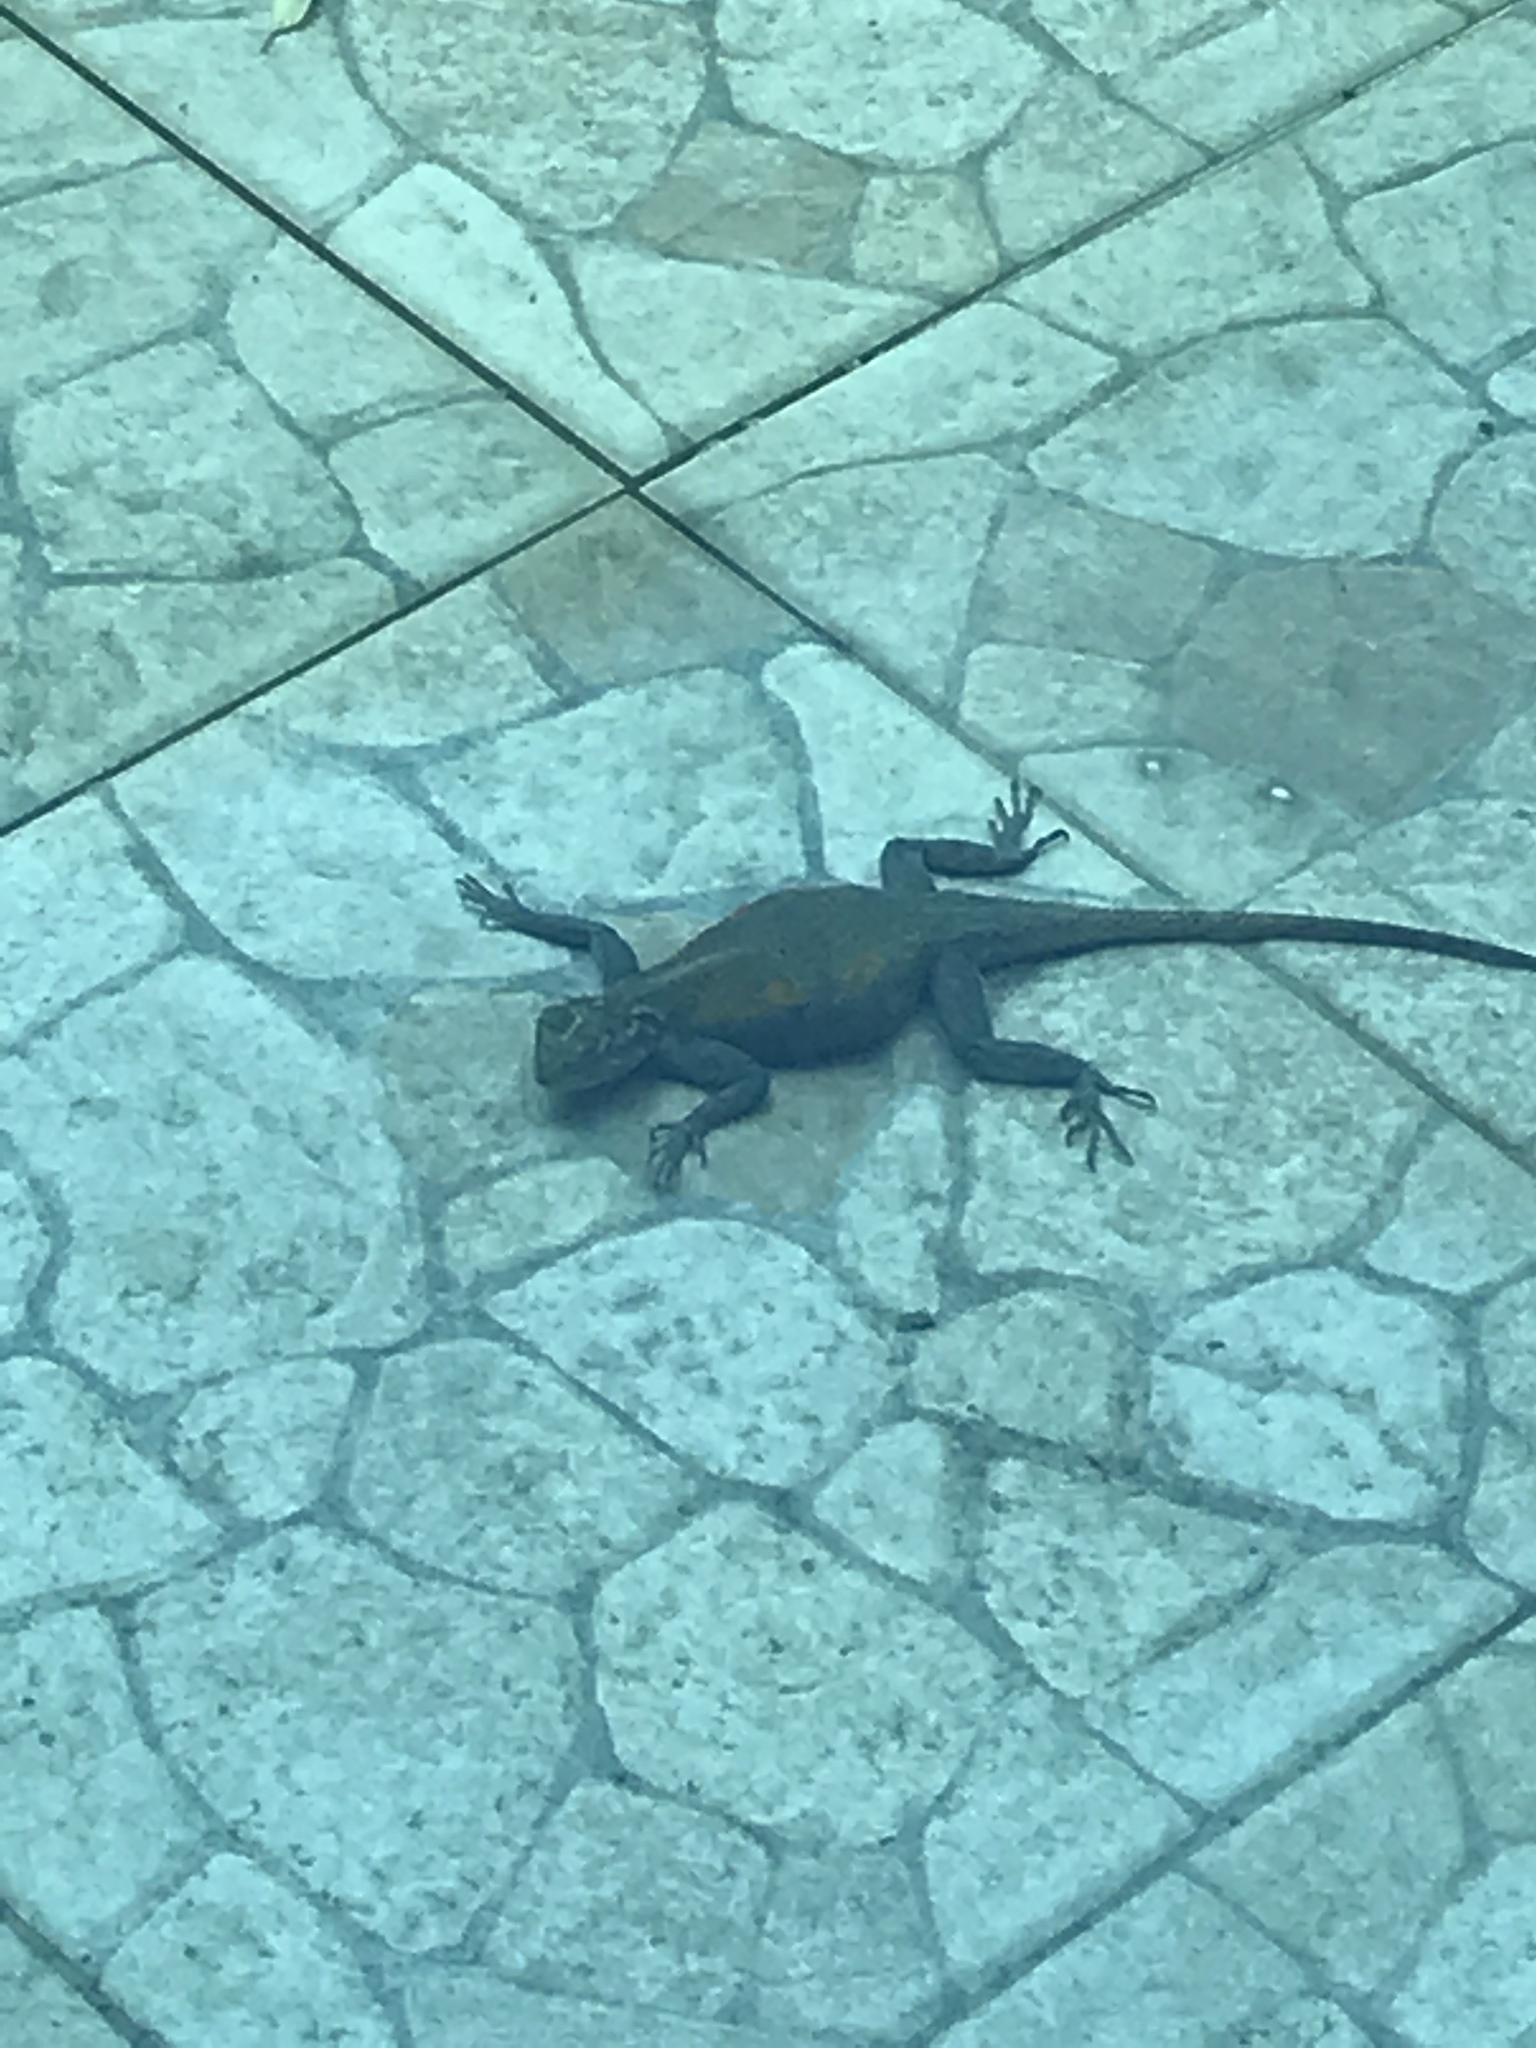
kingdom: Animalia
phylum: Chordata
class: Squamata
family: Agamidae
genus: Agama
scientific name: Agama agama
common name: Common agama
